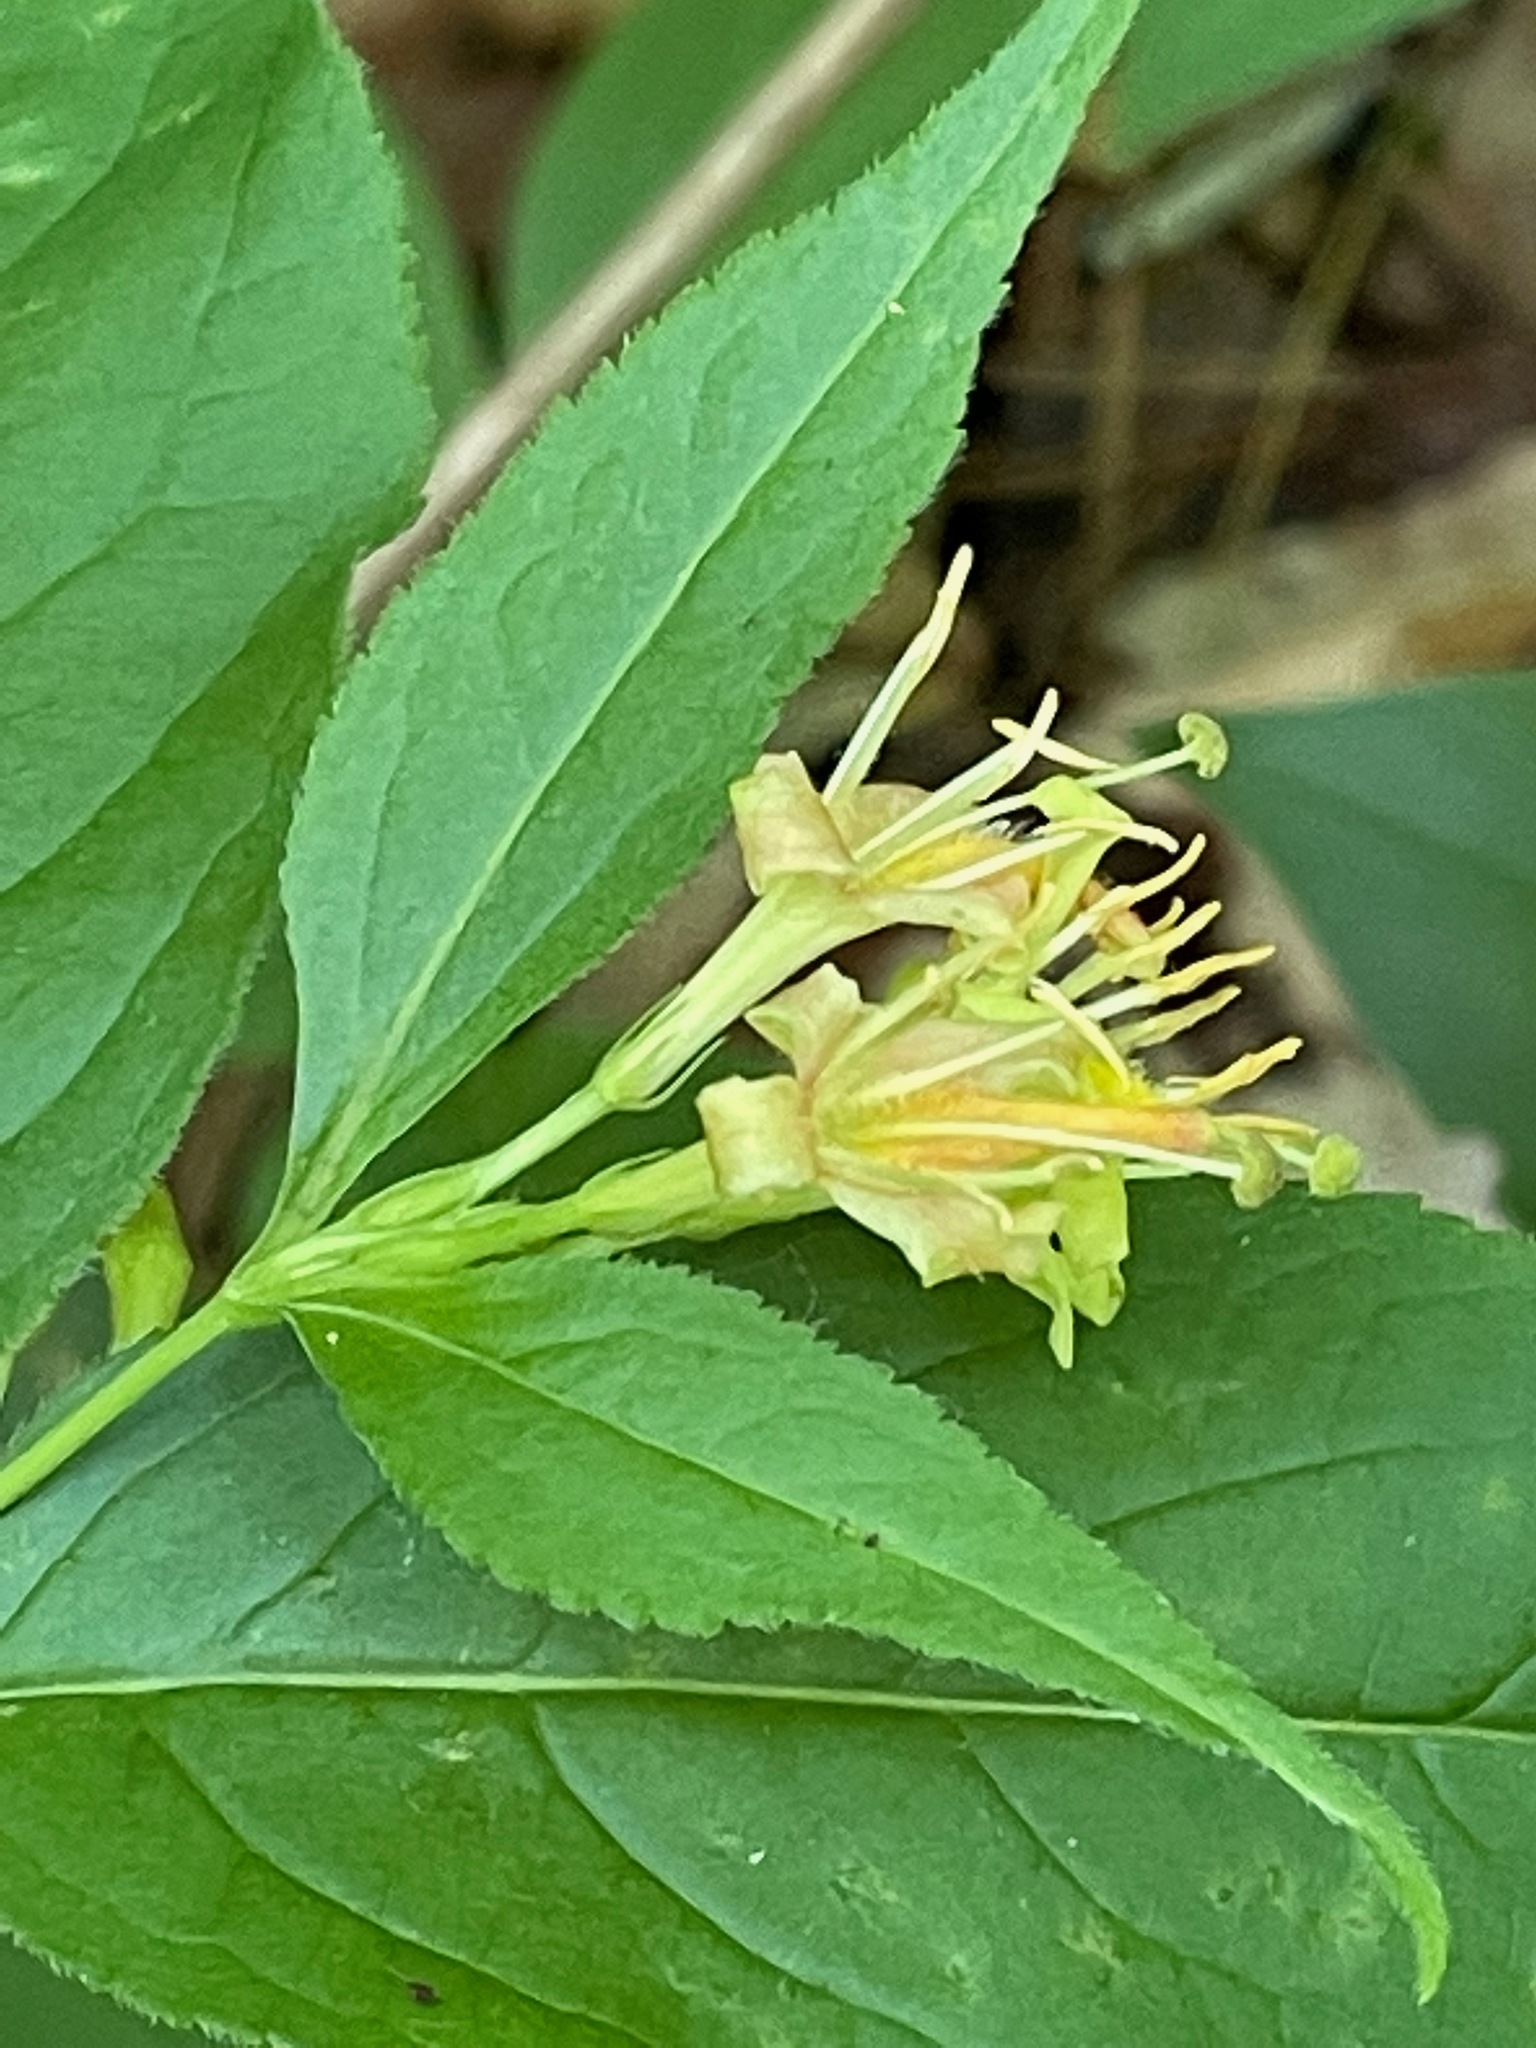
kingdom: Plantae
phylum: Tracheophyta
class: Magnoliopsida
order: Dipsacales
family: Caprifoliaceae
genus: Diervilla
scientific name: Diervilla lonicera
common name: Bush-honeysuckle
